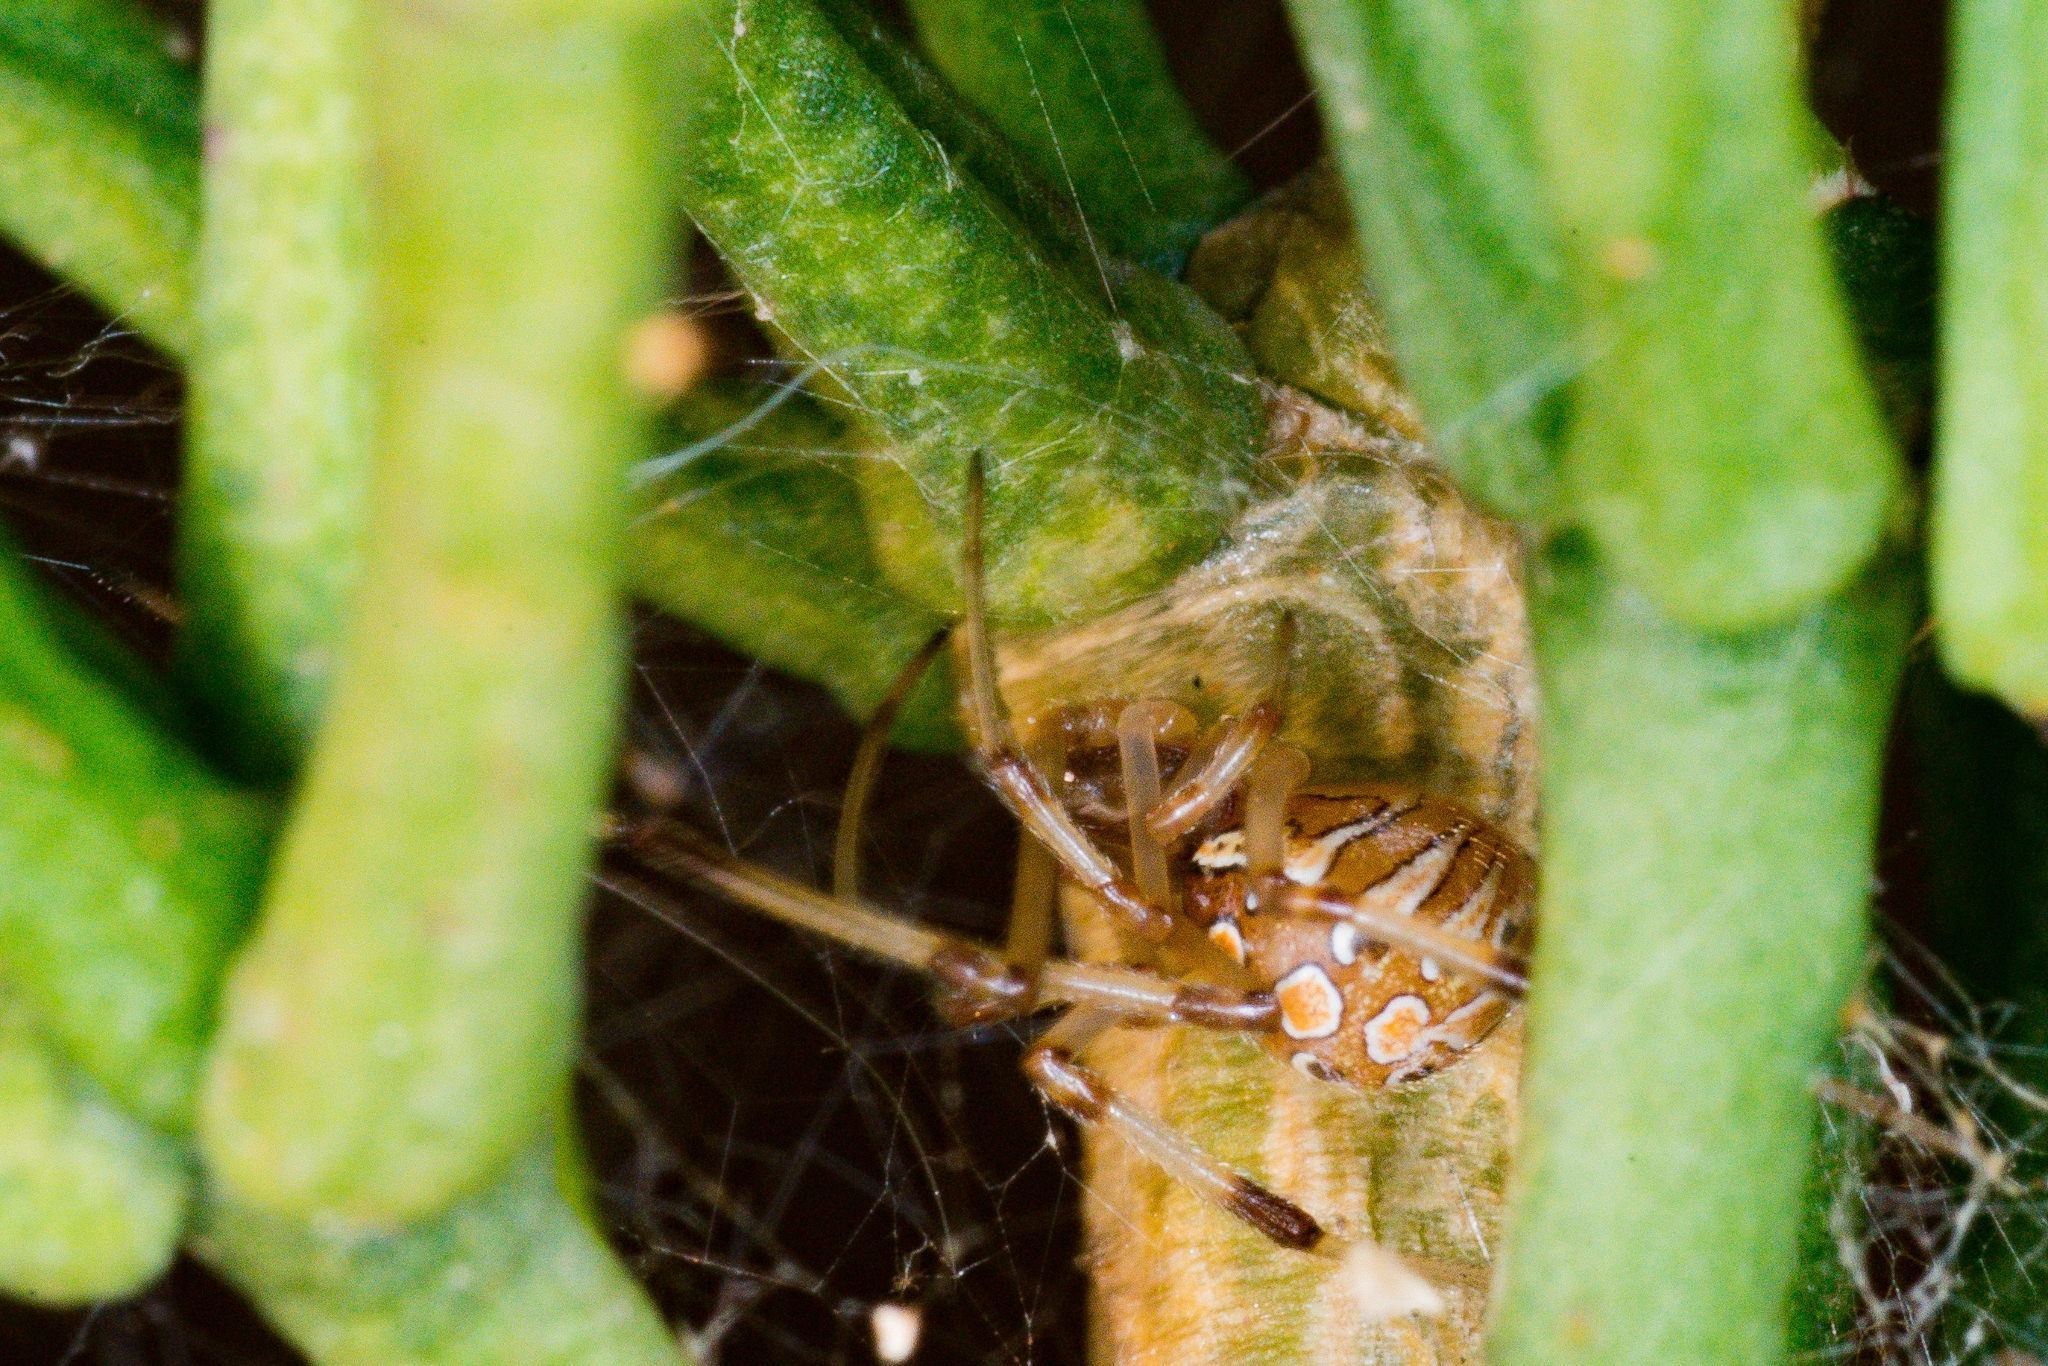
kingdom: Animalia
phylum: Arthropoda
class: Arachnida
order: Araneae
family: Theridiidae
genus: Latrodectus
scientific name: Latrodectus geometricus
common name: Brown widow spider
